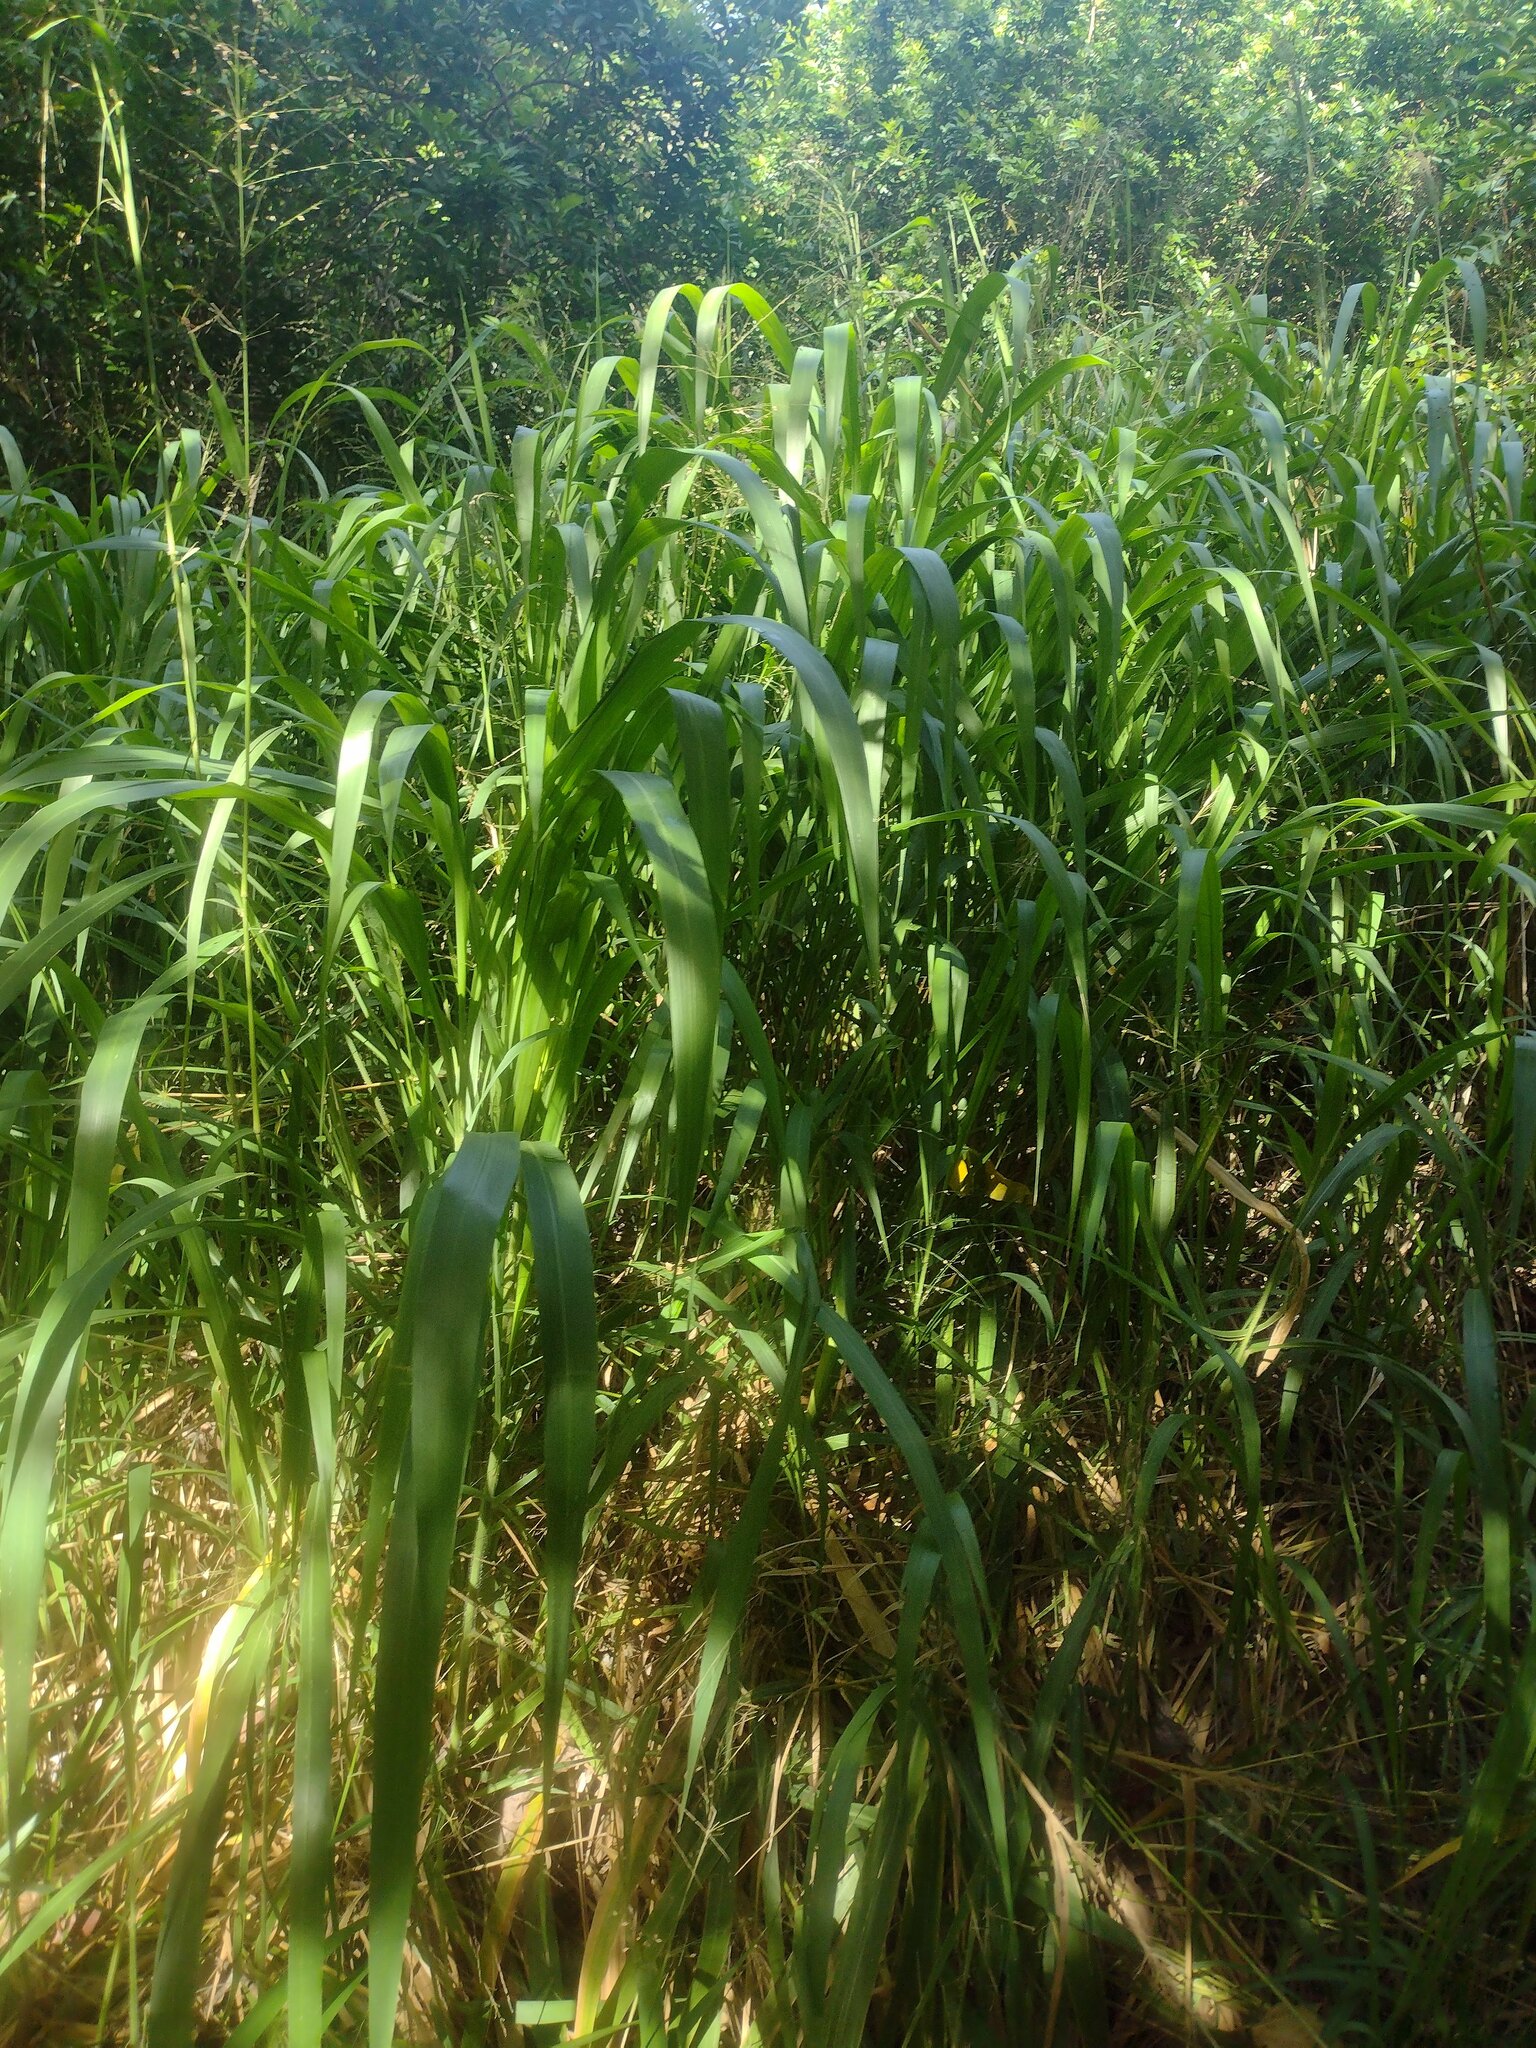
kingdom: Plantae
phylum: Tracheophyta
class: Liliopsida
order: Poales
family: Poaceae
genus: Megathyrsus
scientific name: Megathyrsus maximus
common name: Guineagrass
